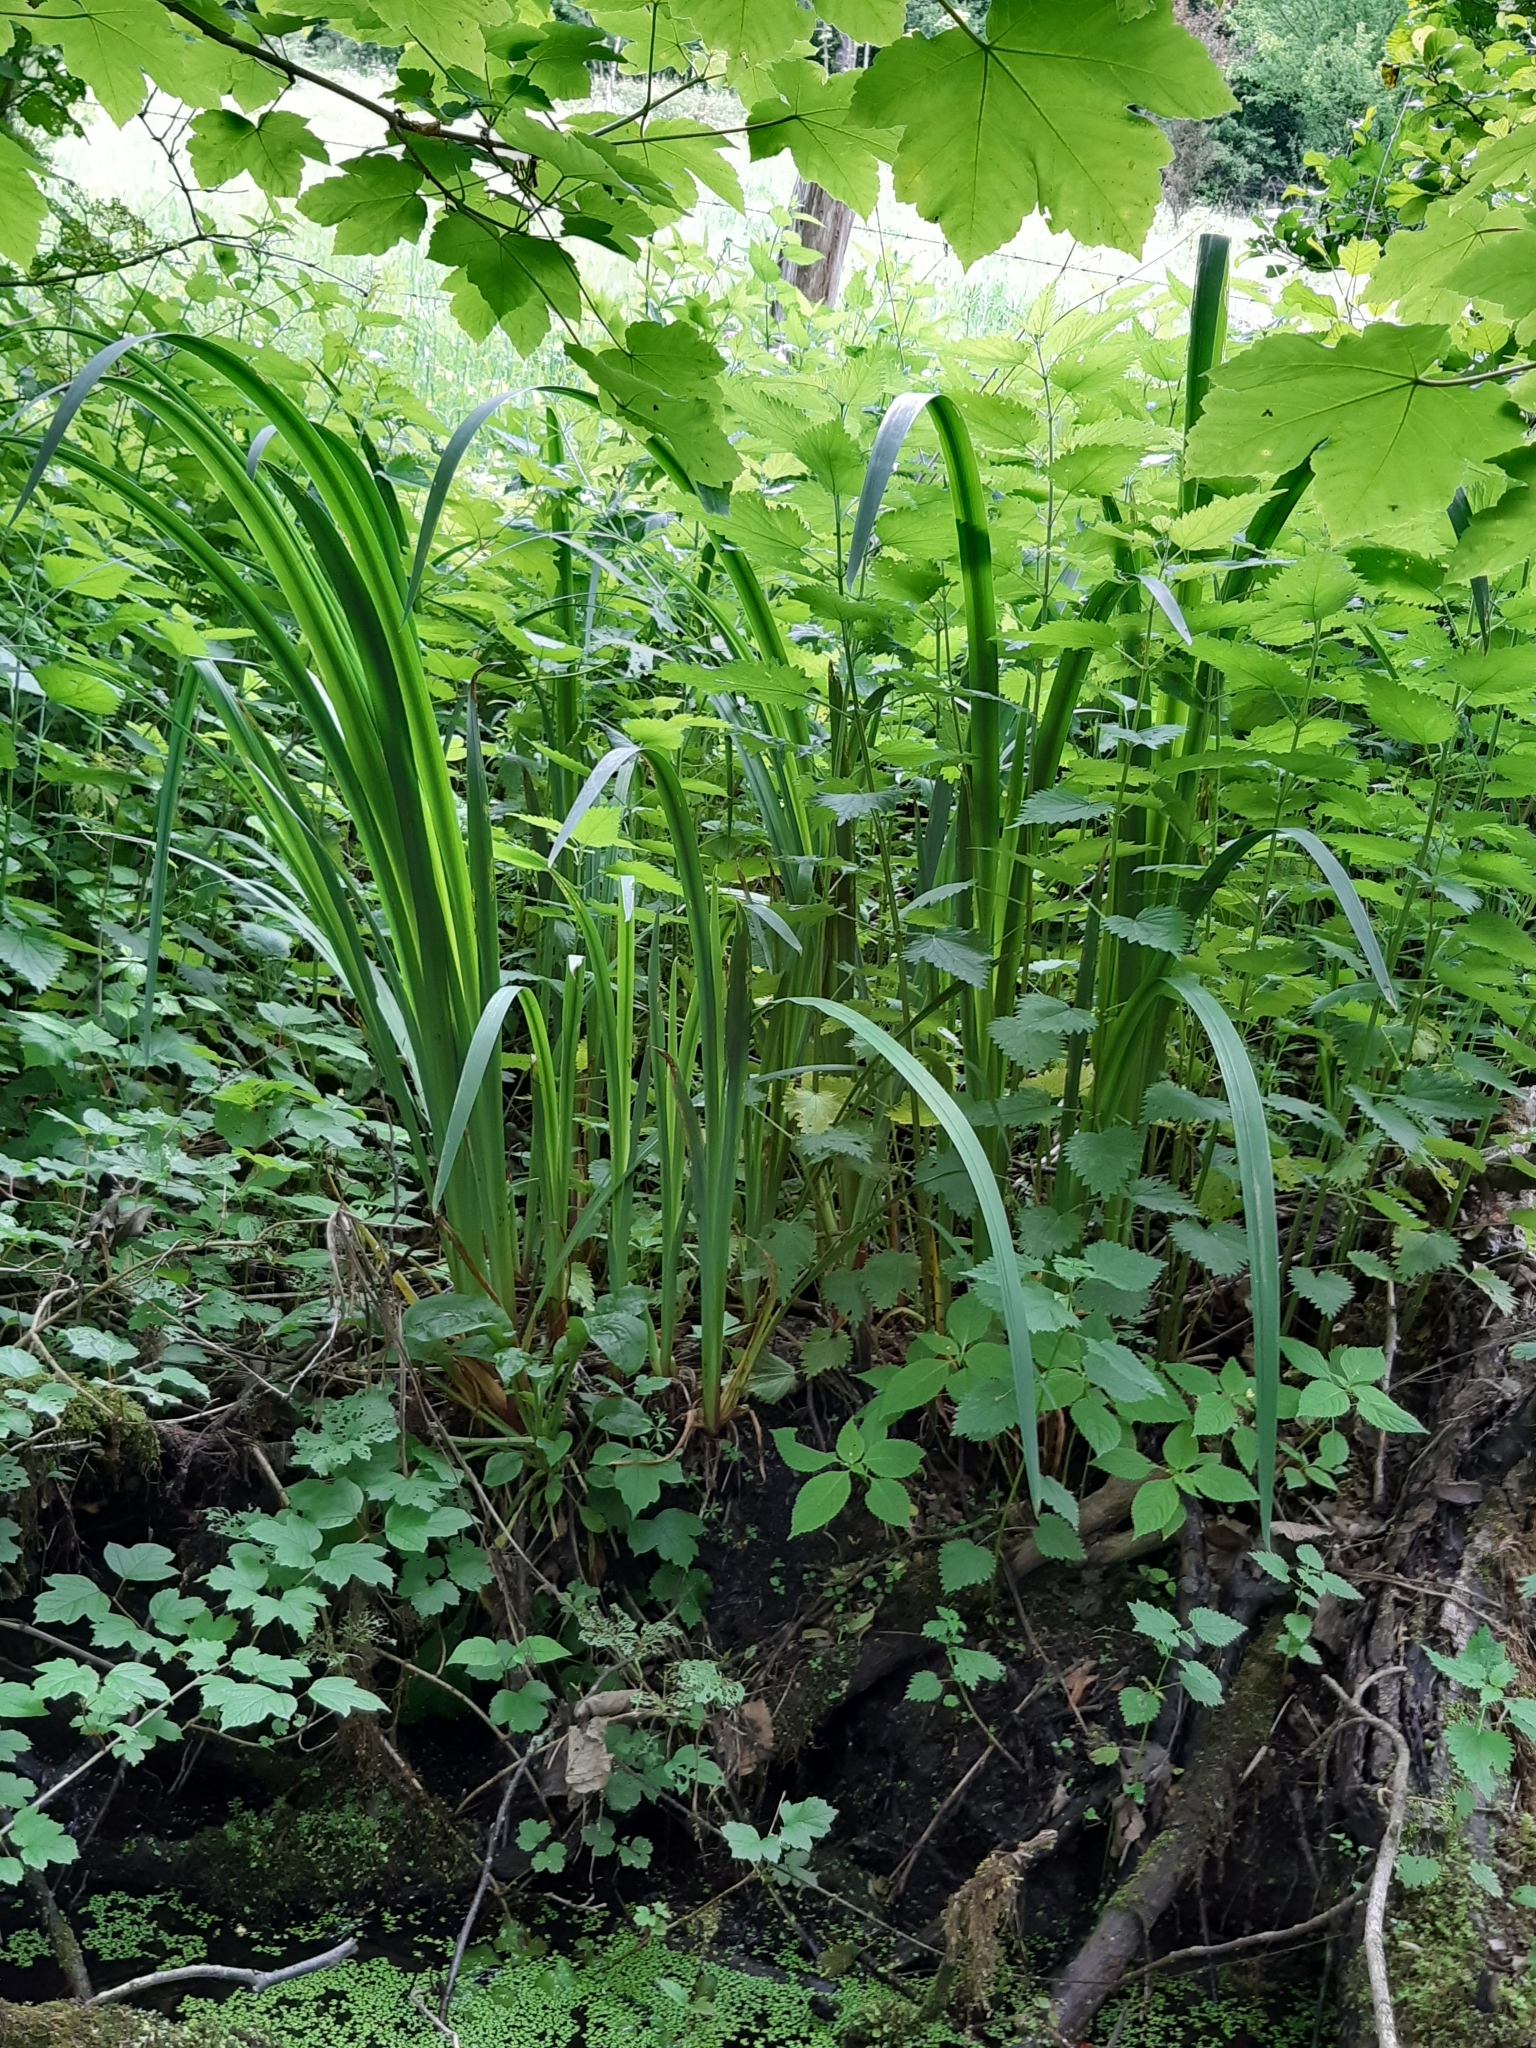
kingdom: Plantae
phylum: Tracheophyta
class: Liliopsida
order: Asparagales
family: Iridaceae
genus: Iris
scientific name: Iris pseudacorus
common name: Yellow flag
